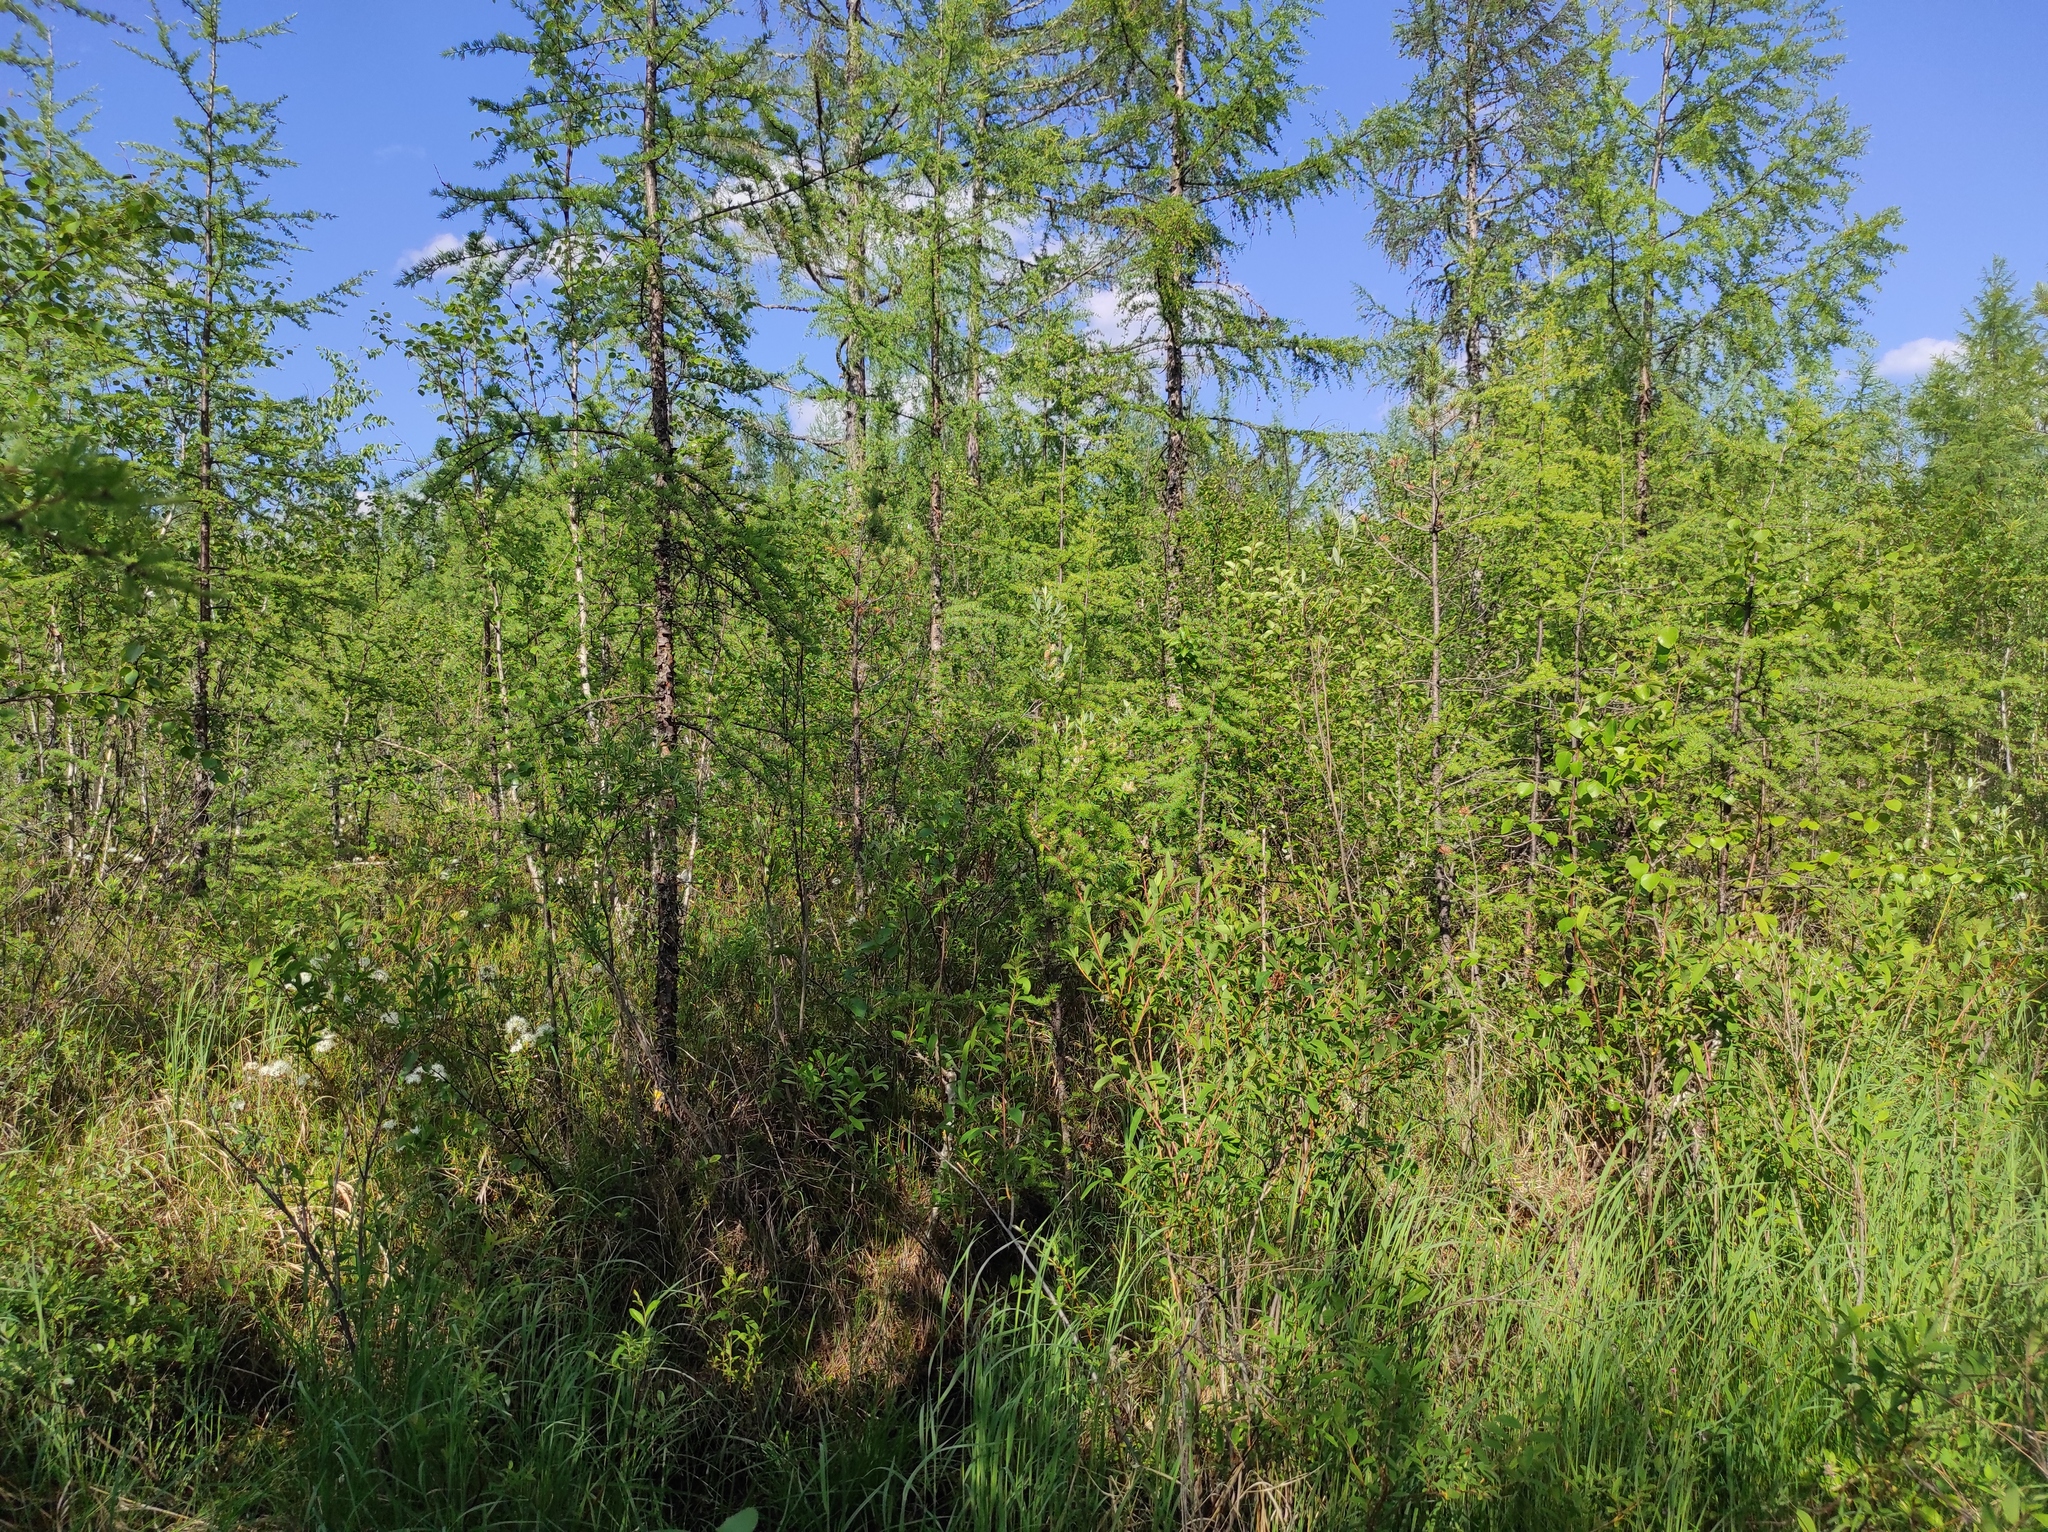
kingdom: Animalia
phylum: Arthropoda
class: Insecta
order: Lepidoptera
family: Pieridae
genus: Aporia
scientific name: Aporia crataegi
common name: Black-veined white
